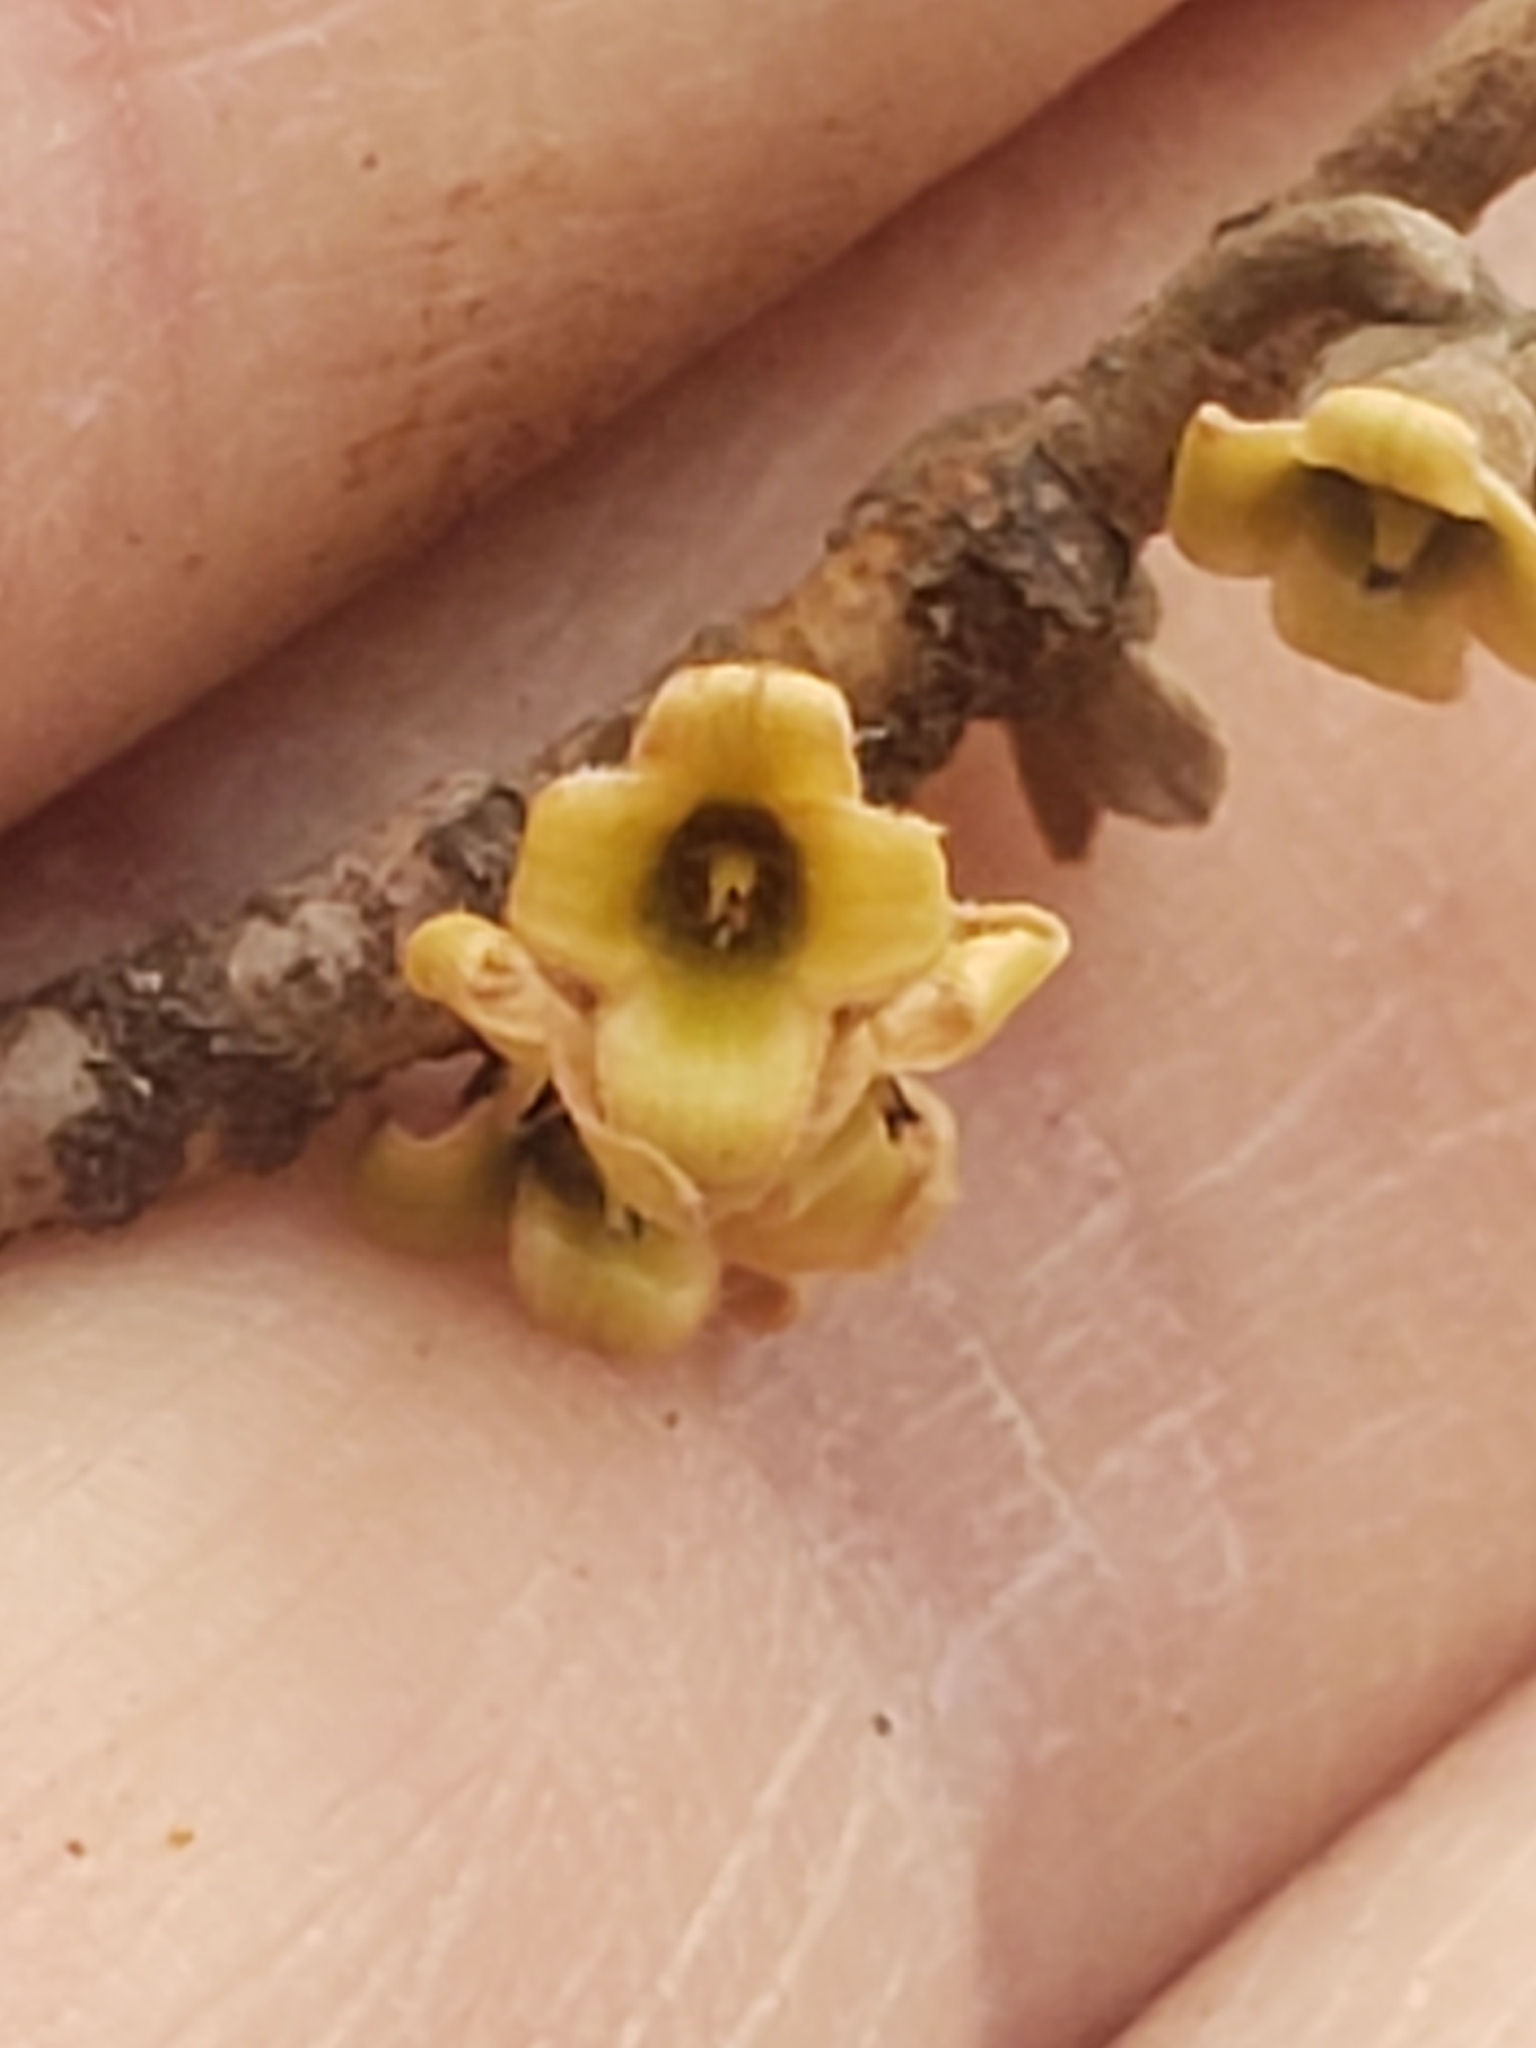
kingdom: Plantae
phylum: Tracheophyta
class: Magnoliopsida
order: Saxifragales
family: Hamamelidaceae
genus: Hamamelis
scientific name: Hamamelis virginiana
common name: Witch-hazel
